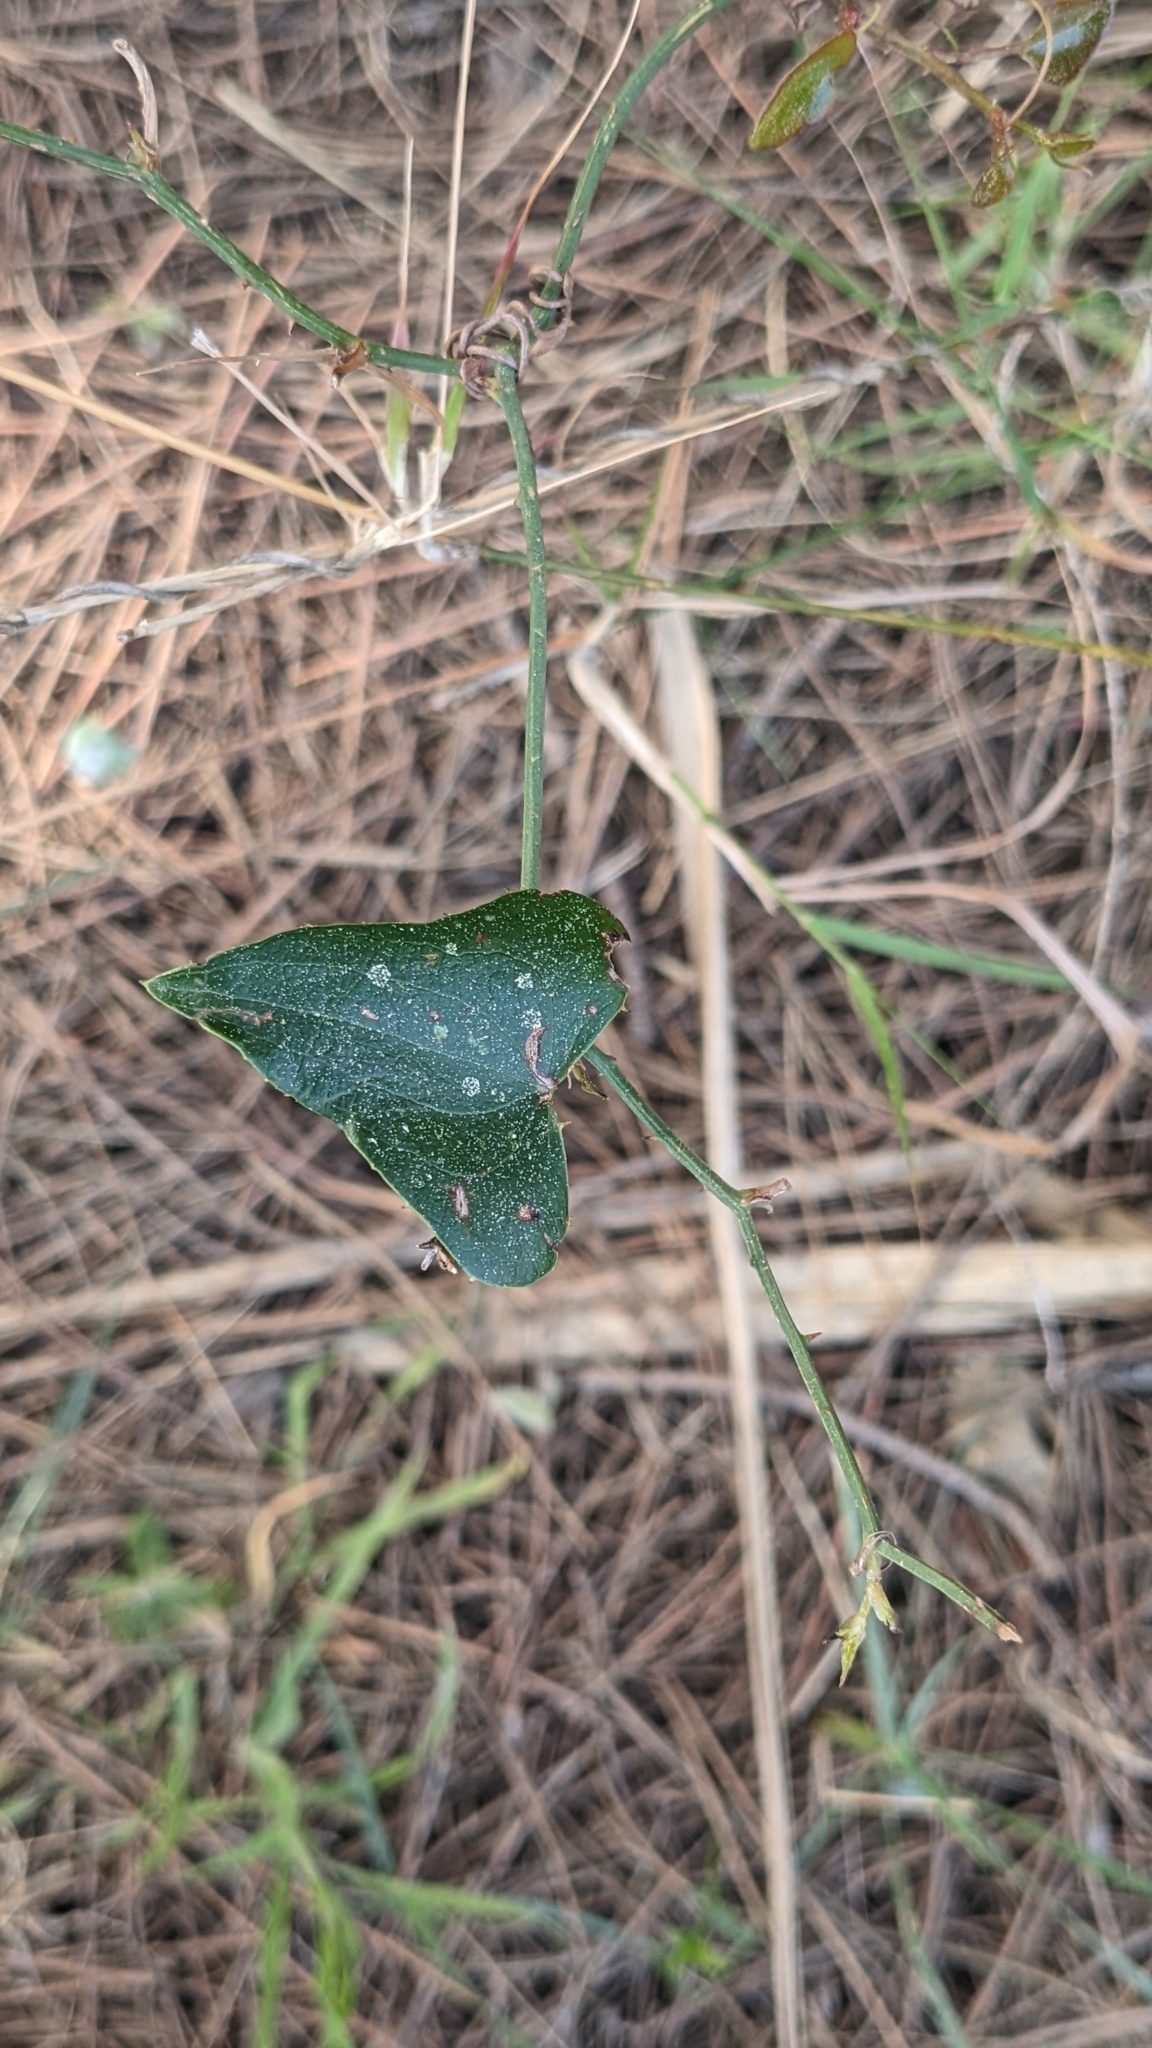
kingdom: Plantae
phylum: Tracheophyta
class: Liliopsida
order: Liliales
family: Smilacaceae
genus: Smilax
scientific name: Smilax aspera
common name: Common smilax
